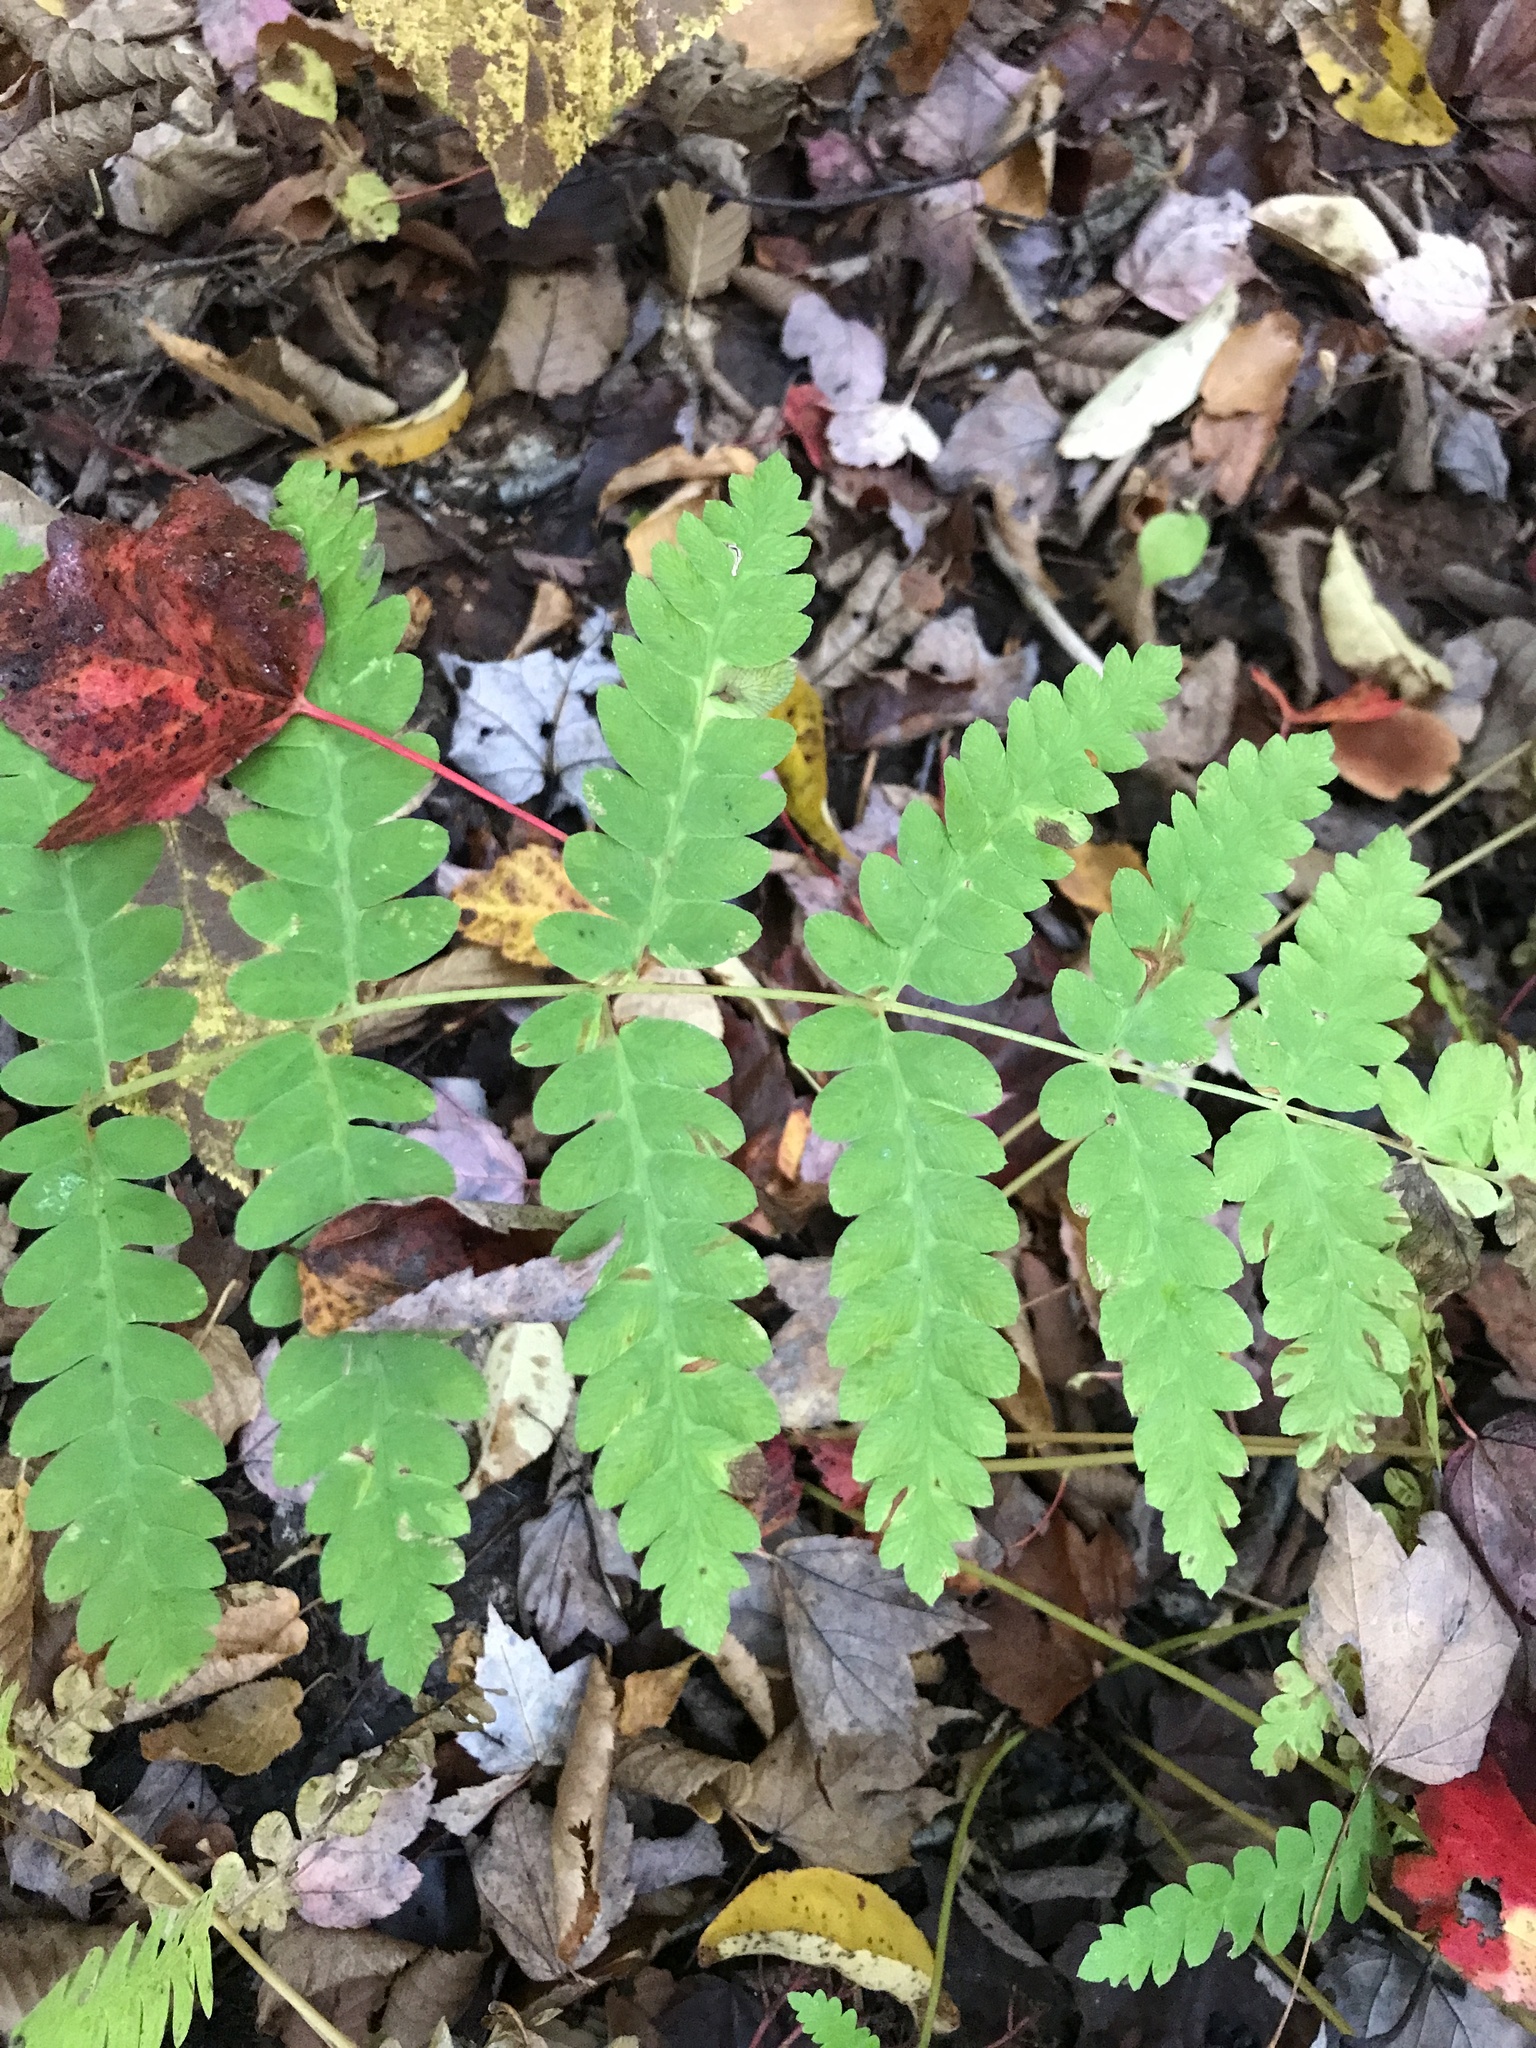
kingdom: Plantae
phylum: Tracheophyta
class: Polypodiopsida
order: Osmundales
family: Osmundaceae
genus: Claytosmunda
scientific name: Claytosmunda claytoniana
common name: Clayton's fern
